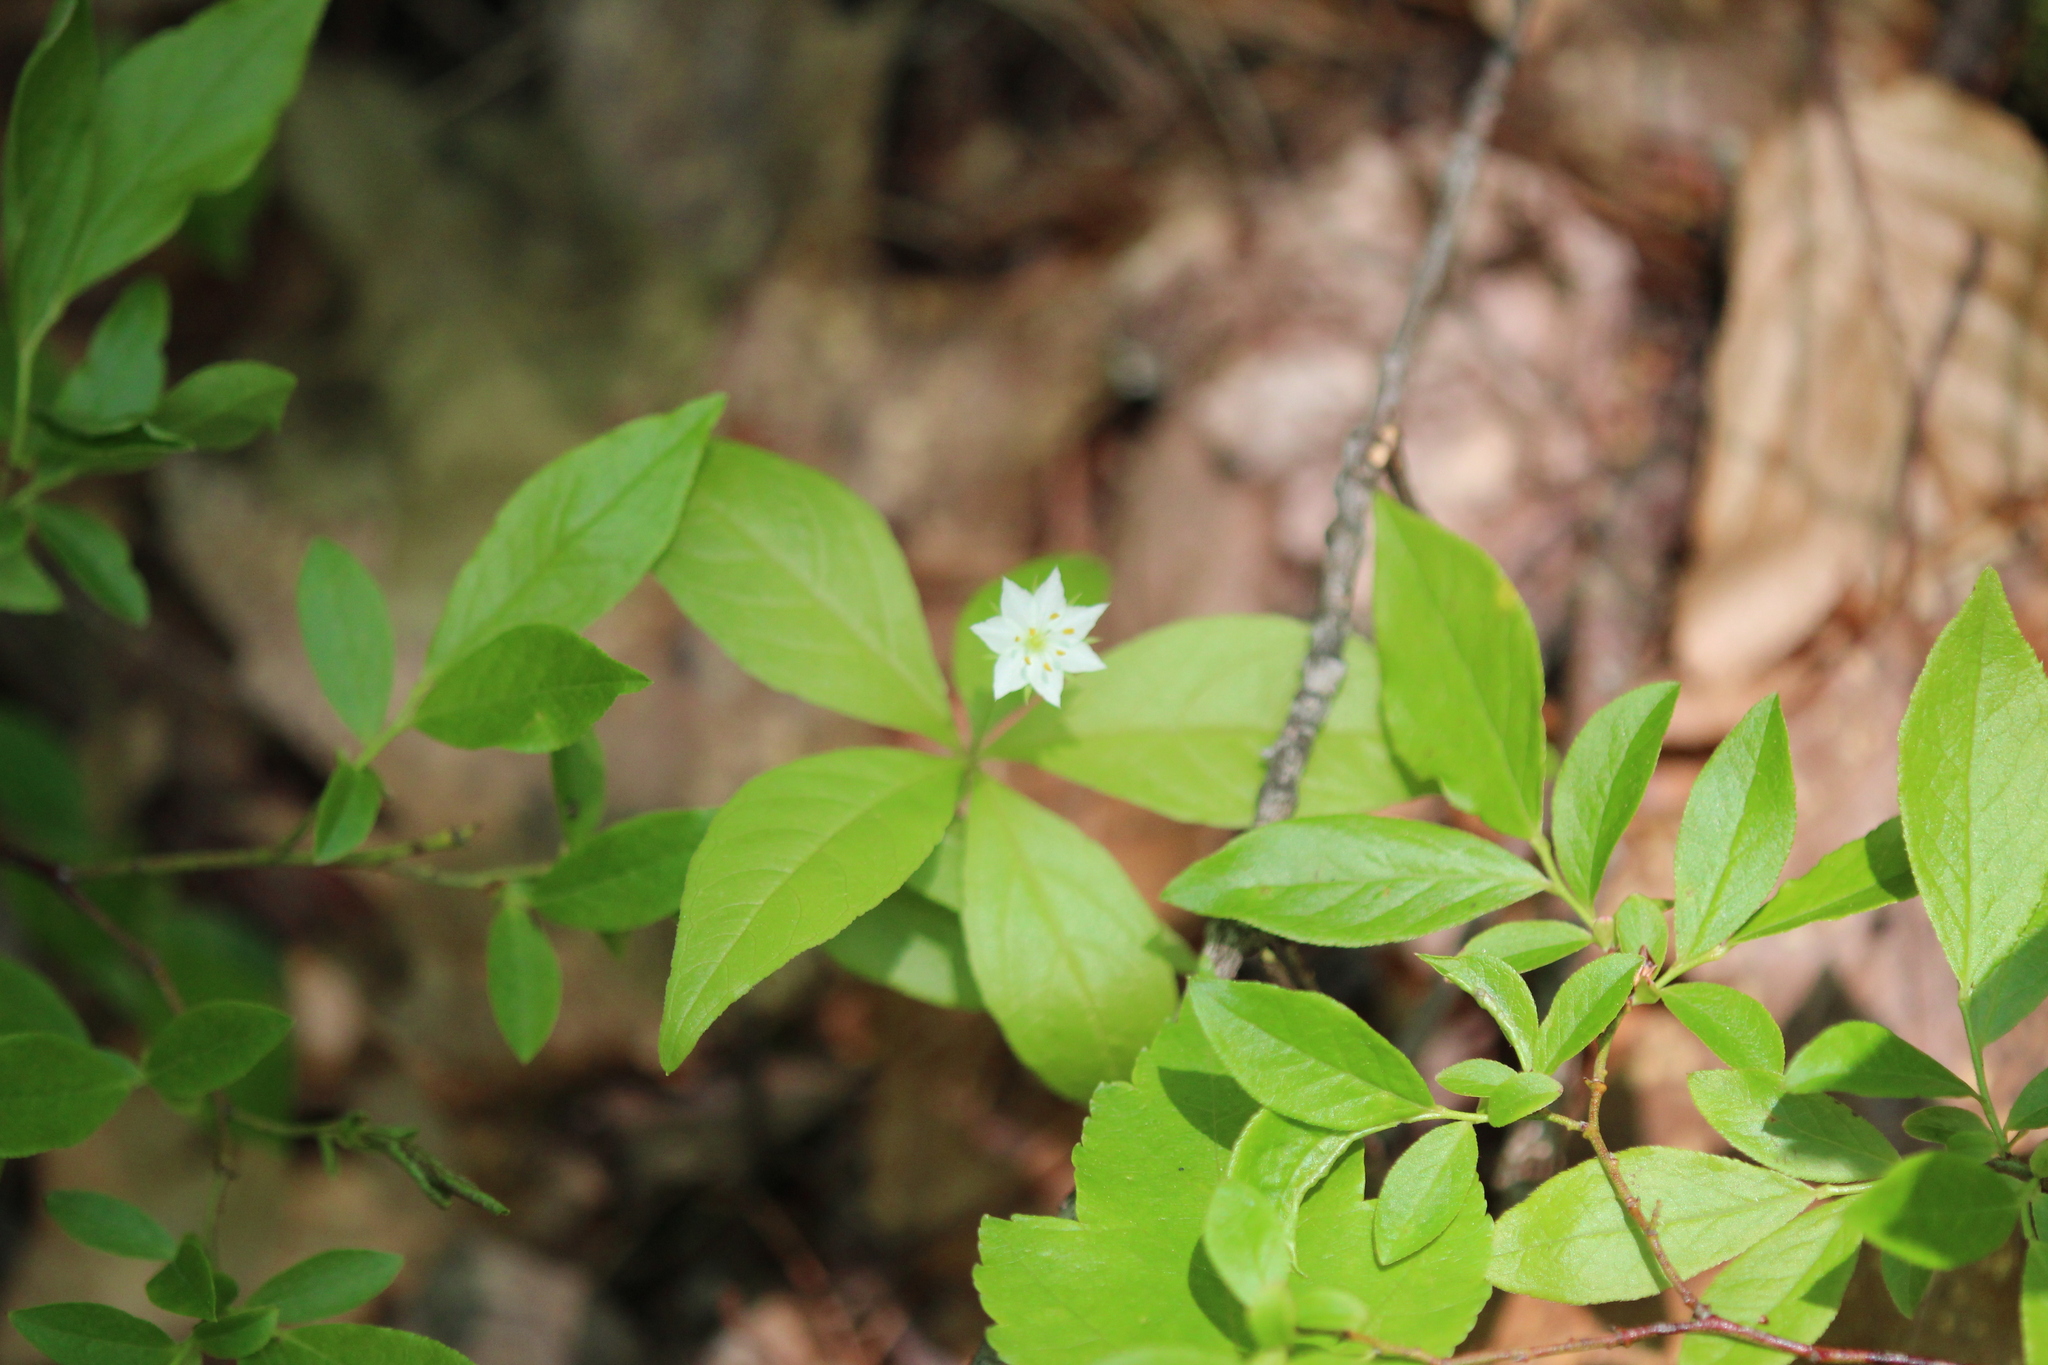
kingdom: Plantae
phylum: Tracheophyta
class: Magnoliopsida
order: Ericales
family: Primulaceae
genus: Lysimachia
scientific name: Lysimachia borealis
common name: American starflower
